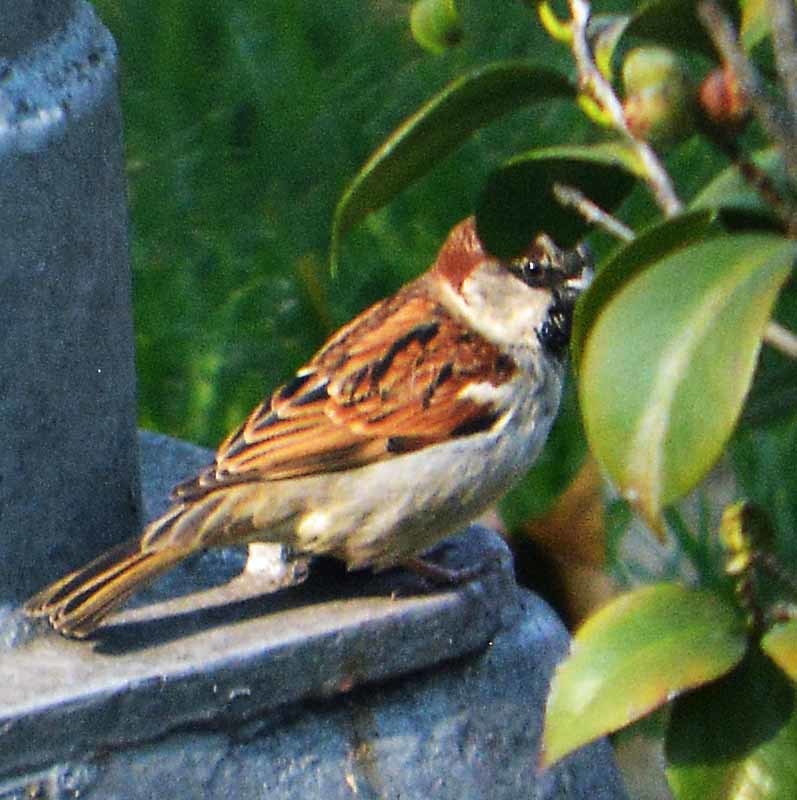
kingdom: Animalia
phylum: Chordata
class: Aves
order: Passeriformes
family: Passeridae
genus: Passer
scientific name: Passer domesticus
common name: House sparrow
